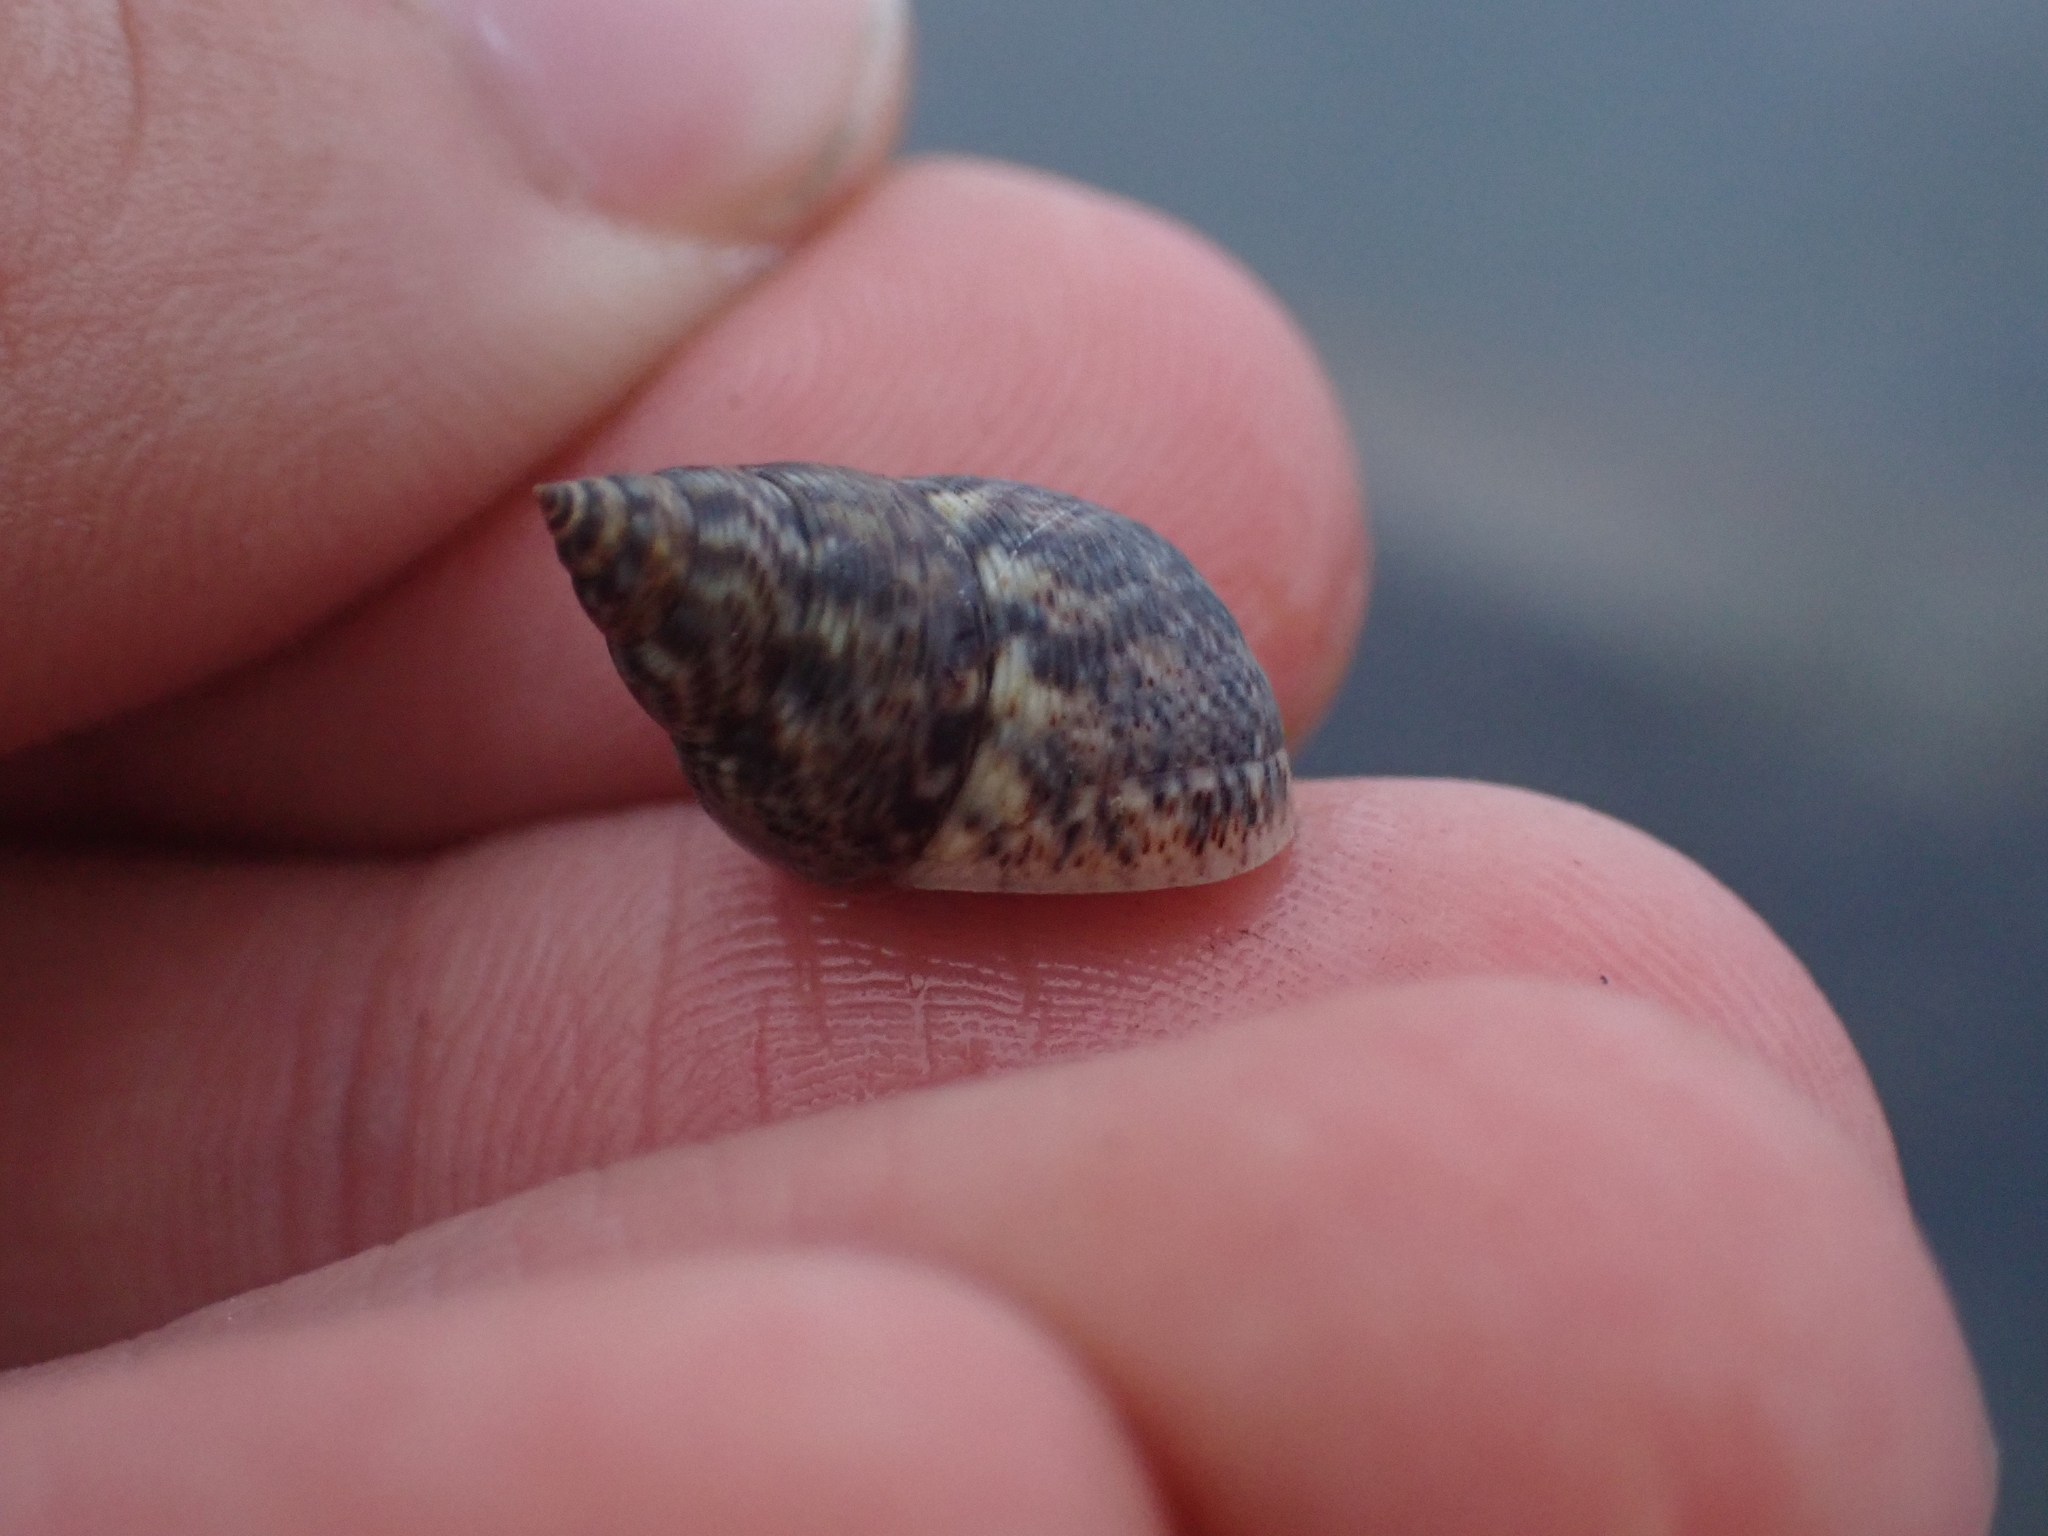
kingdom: Animalia
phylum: Mollusca
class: Gastropoda
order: Littorinimorpha
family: Littorinidae
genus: Littoraria
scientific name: Littoraria angulifera
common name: Mangrove periwinkle
